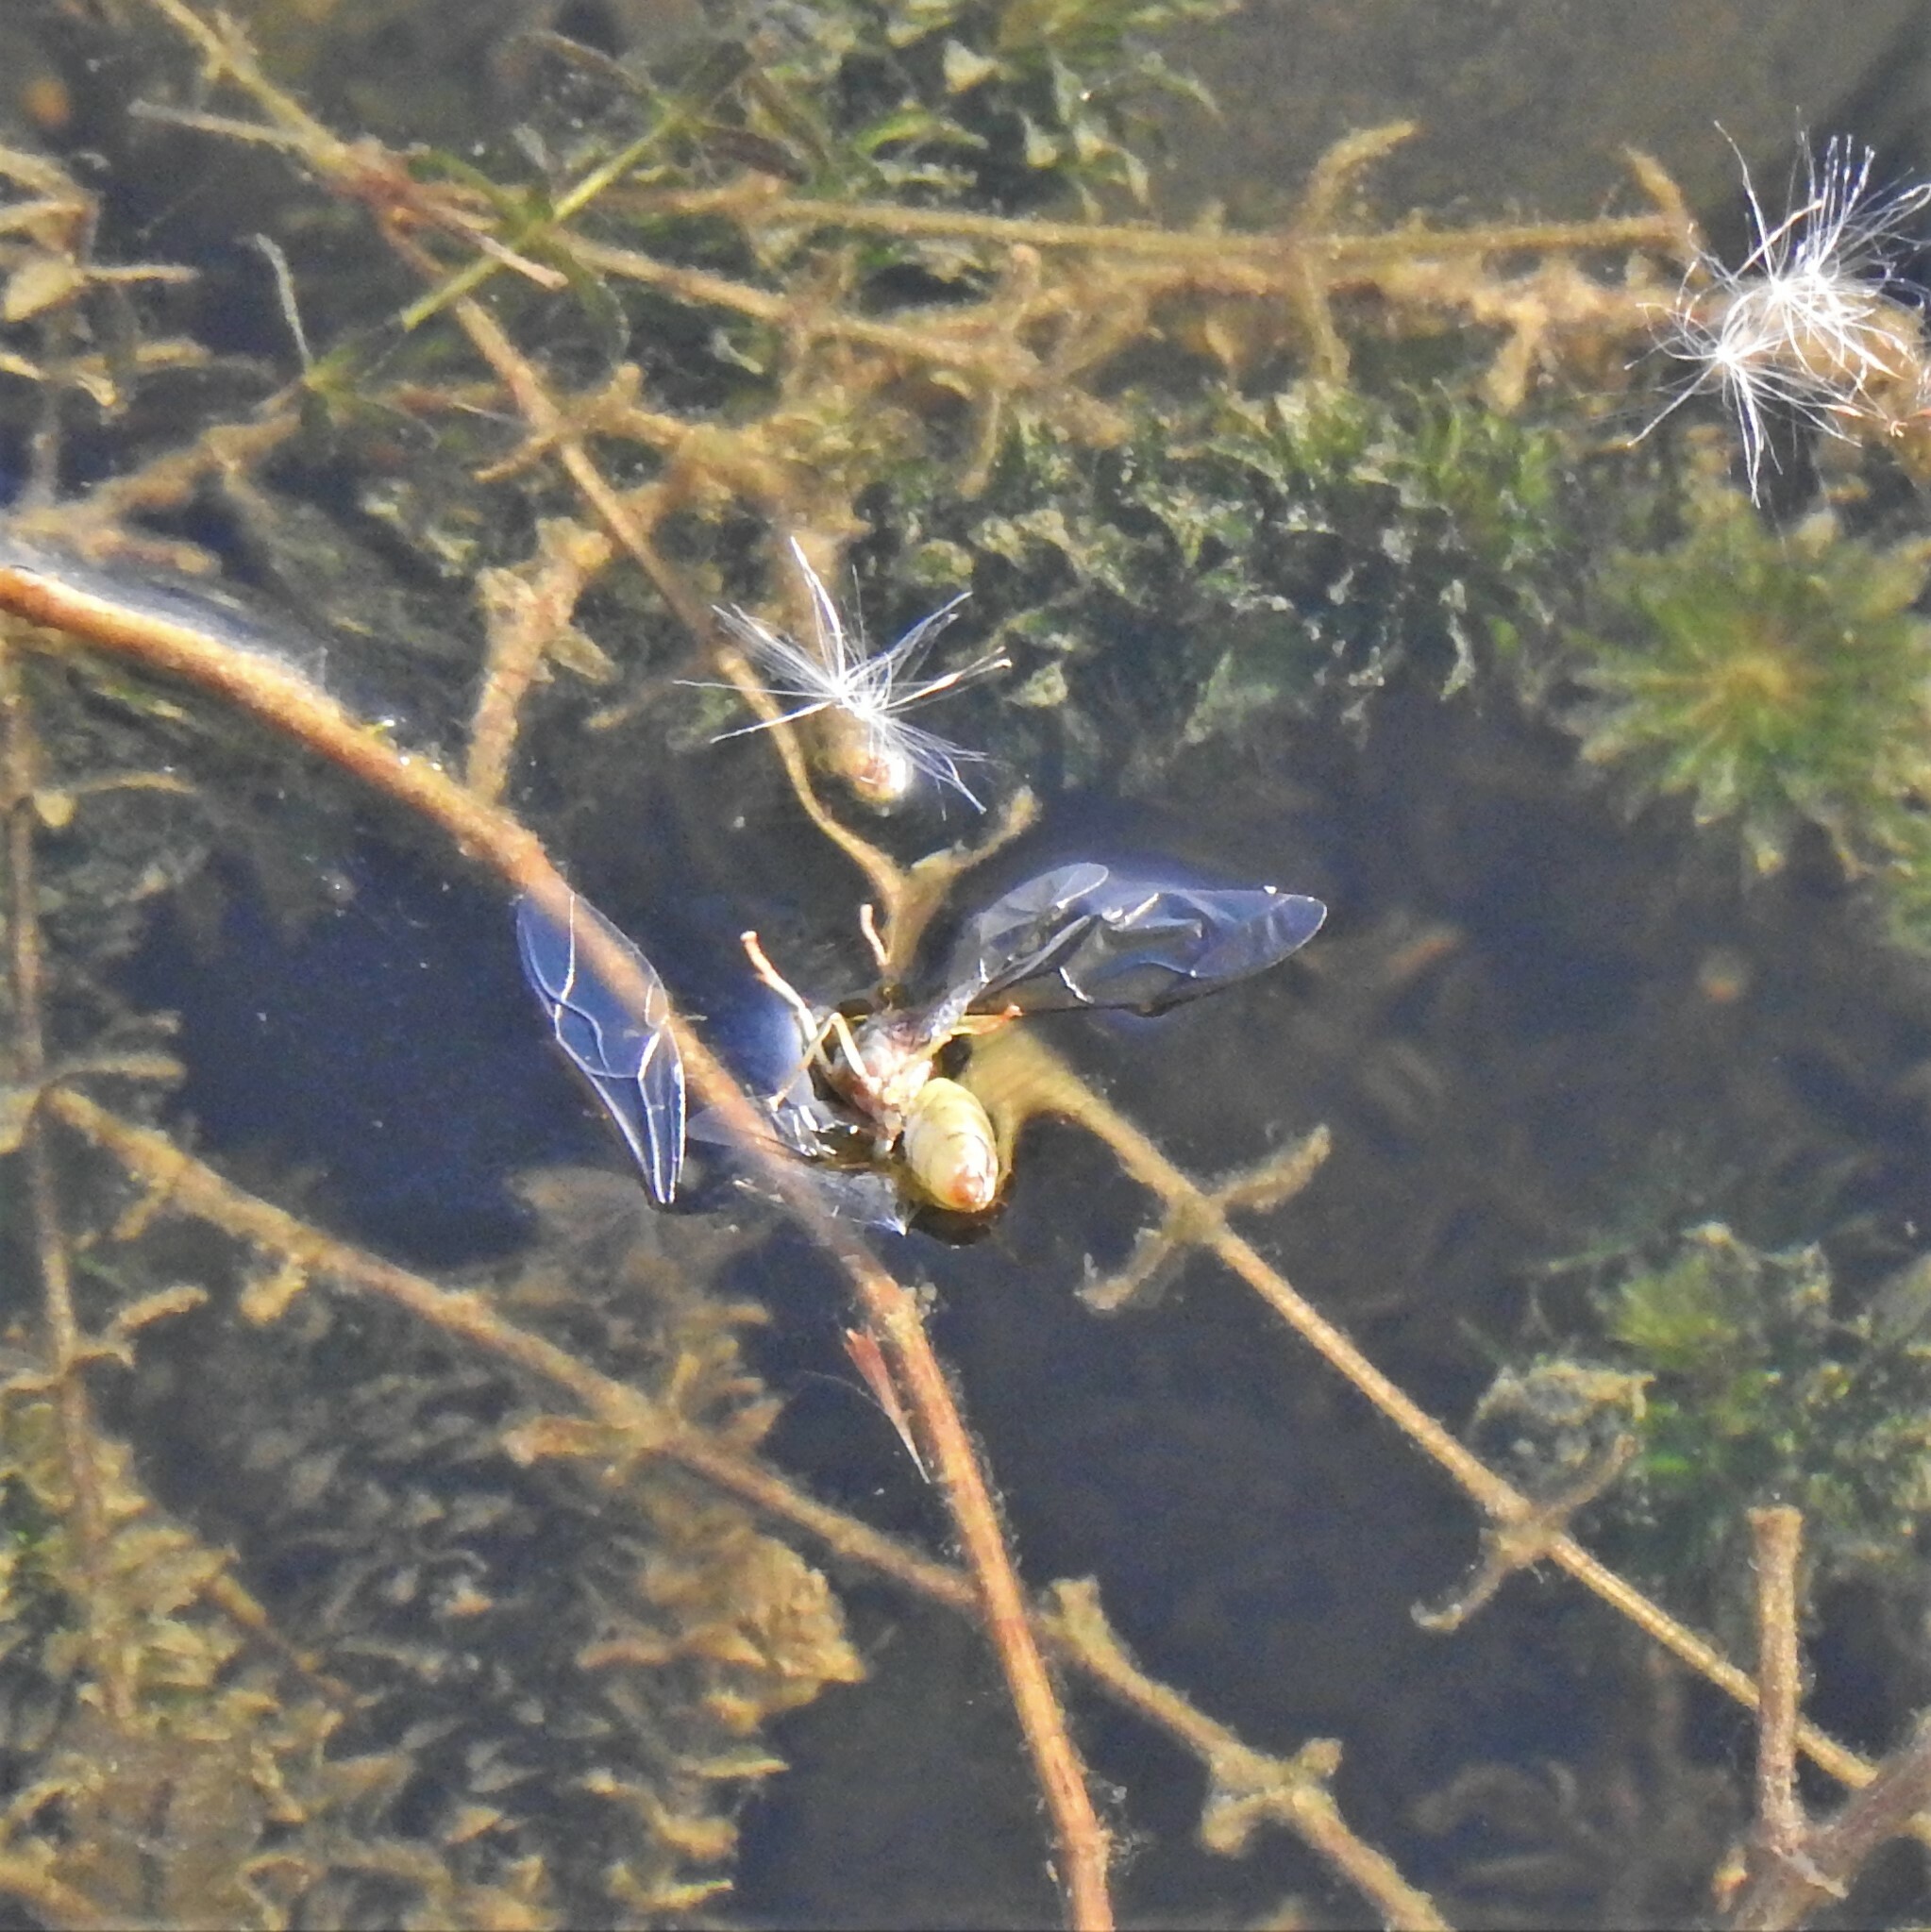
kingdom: Animalia
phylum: Arthropoda
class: Insecta
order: Hymenoptera
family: Formicidae
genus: Oecophylla
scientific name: Oecophylla smaragdina
